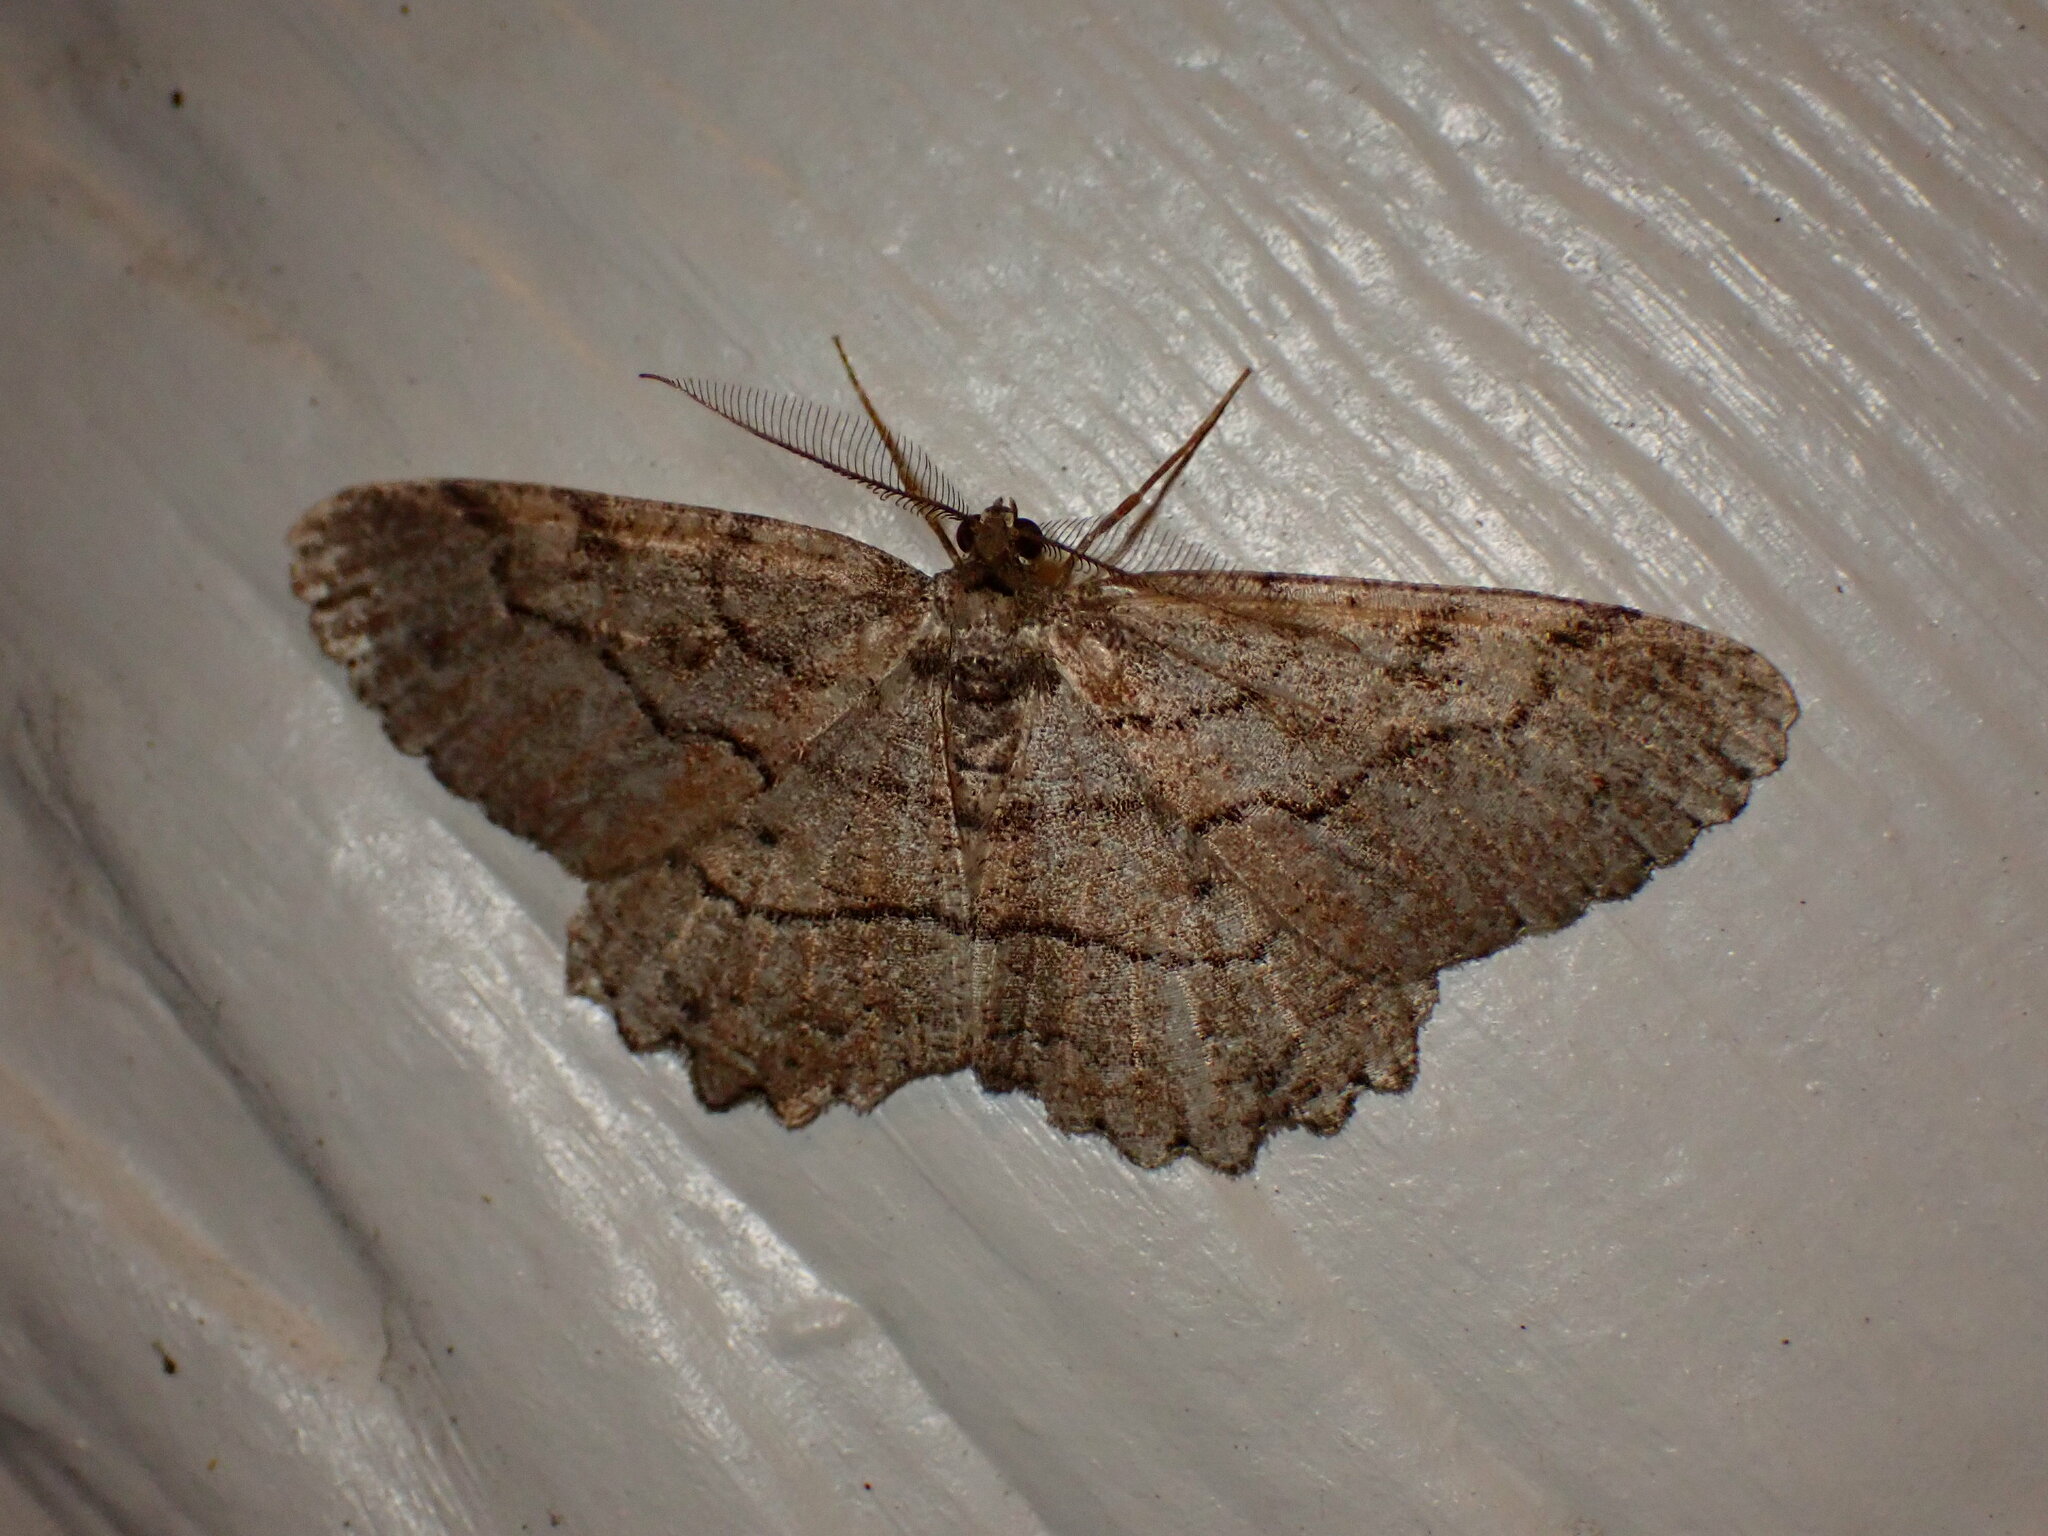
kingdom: Animalia
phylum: Arthropoda
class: Insecta
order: Lepidoptera
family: Geometridae
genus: Neoalcis
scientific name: Neoalcis californiaria
